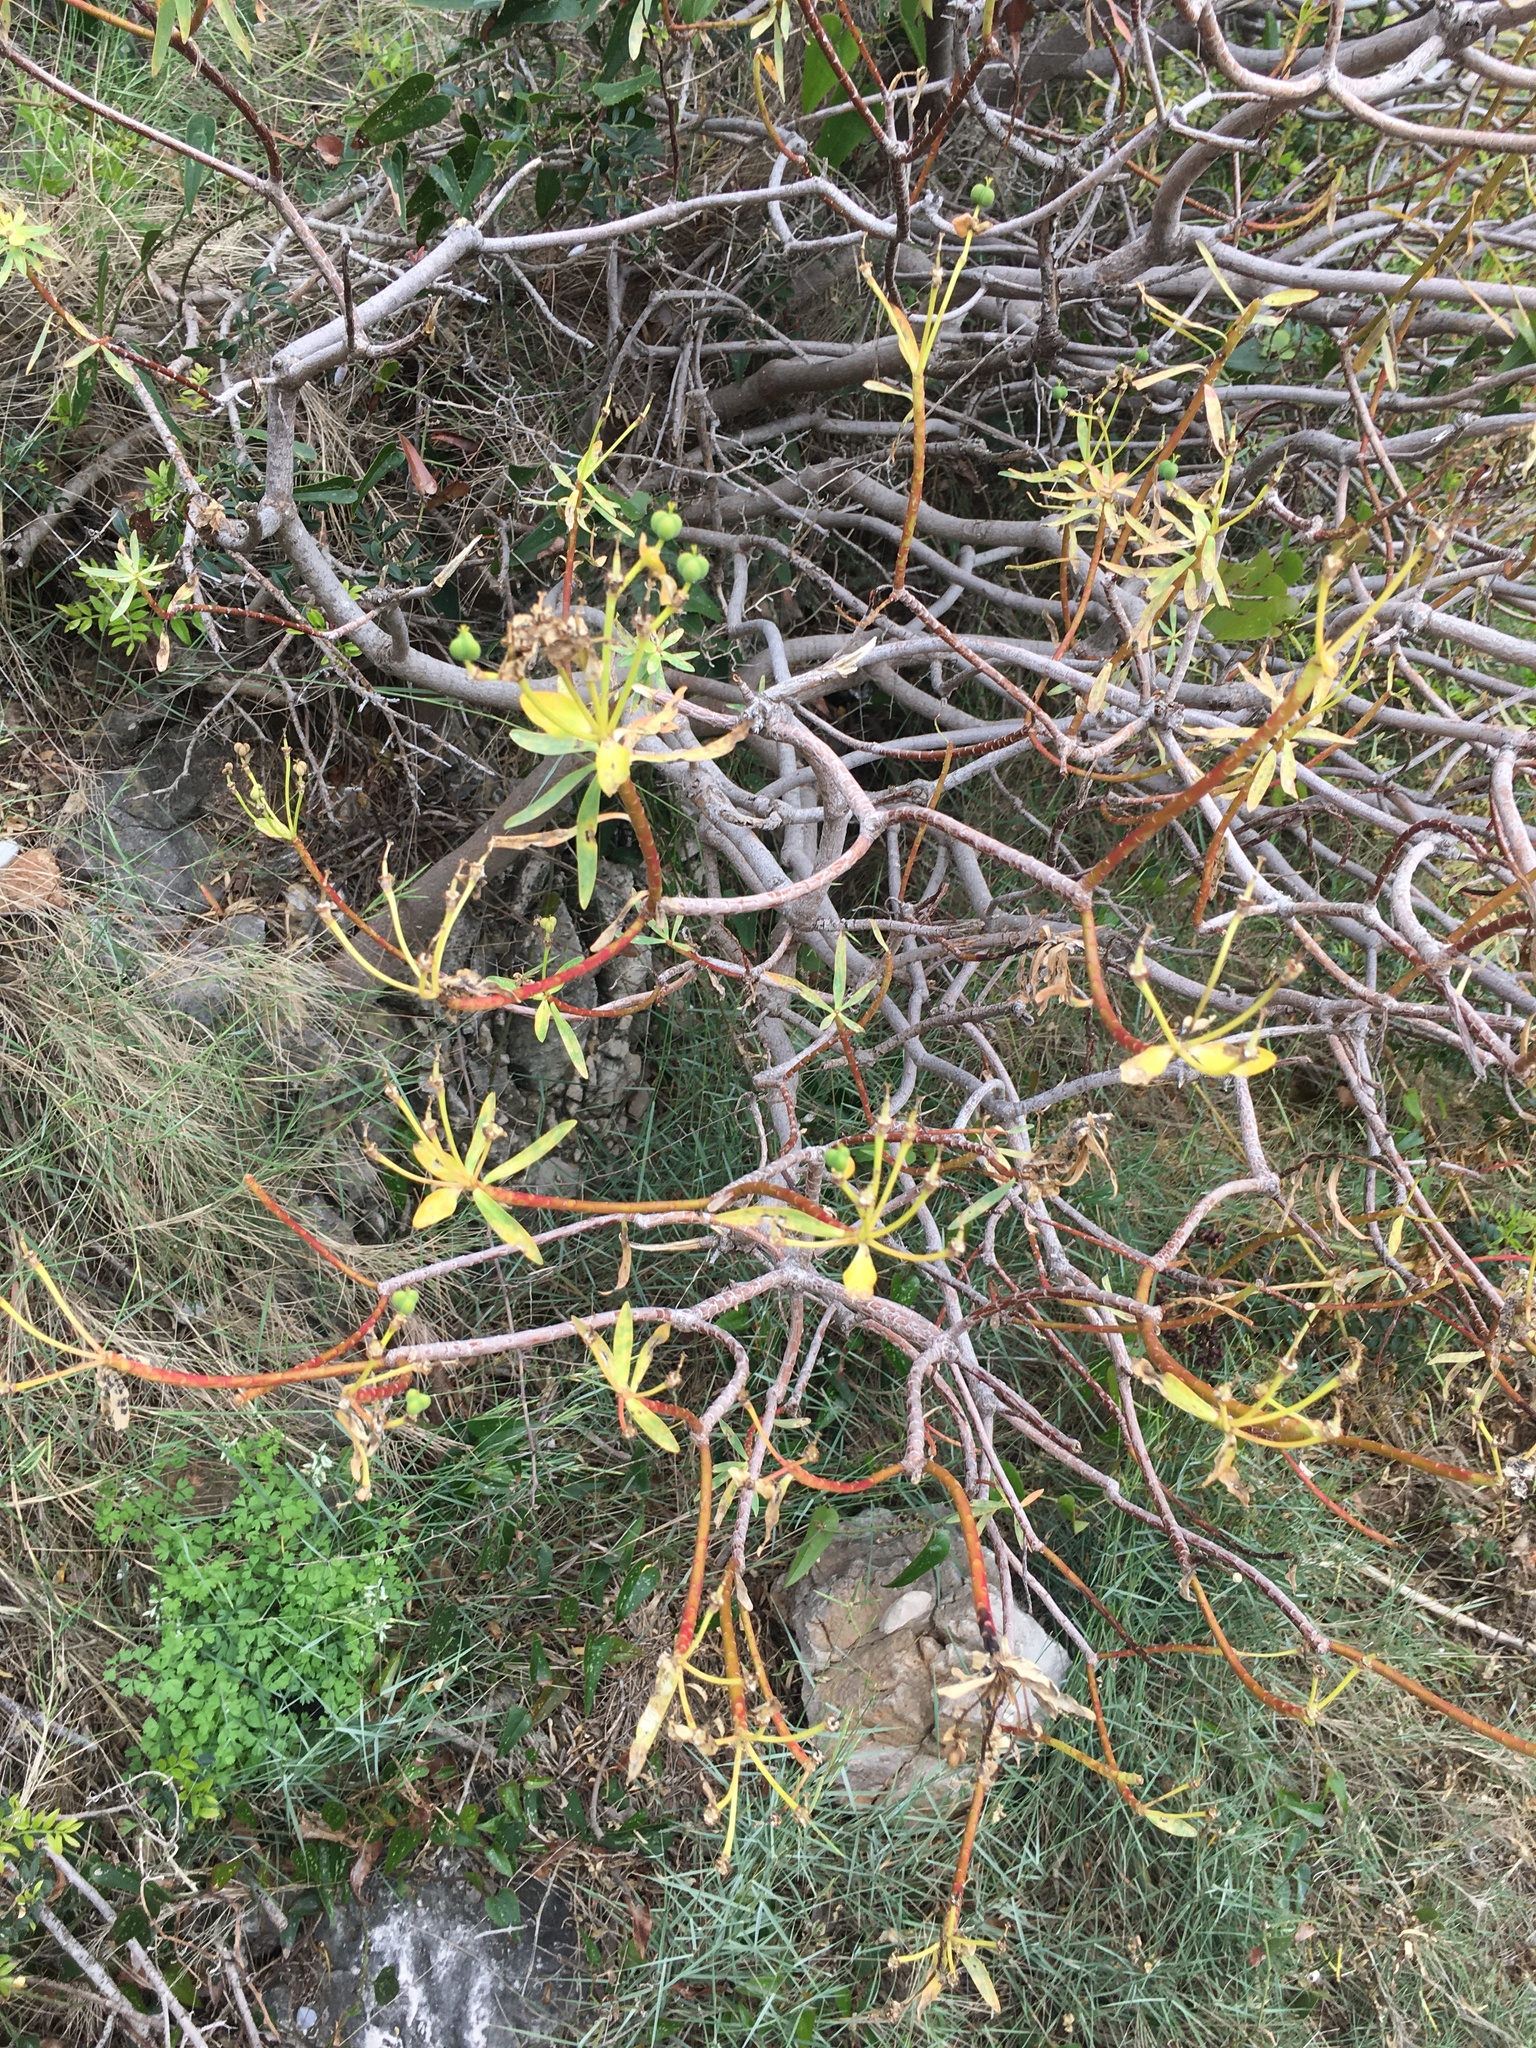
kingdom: Plantae
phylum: Tracheophyta
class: Magnoliopsida
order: Malpighiales
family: Euphorbiaceae
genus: Euphorbia
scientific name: Euphorbia dendroides
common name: Tree spurge
